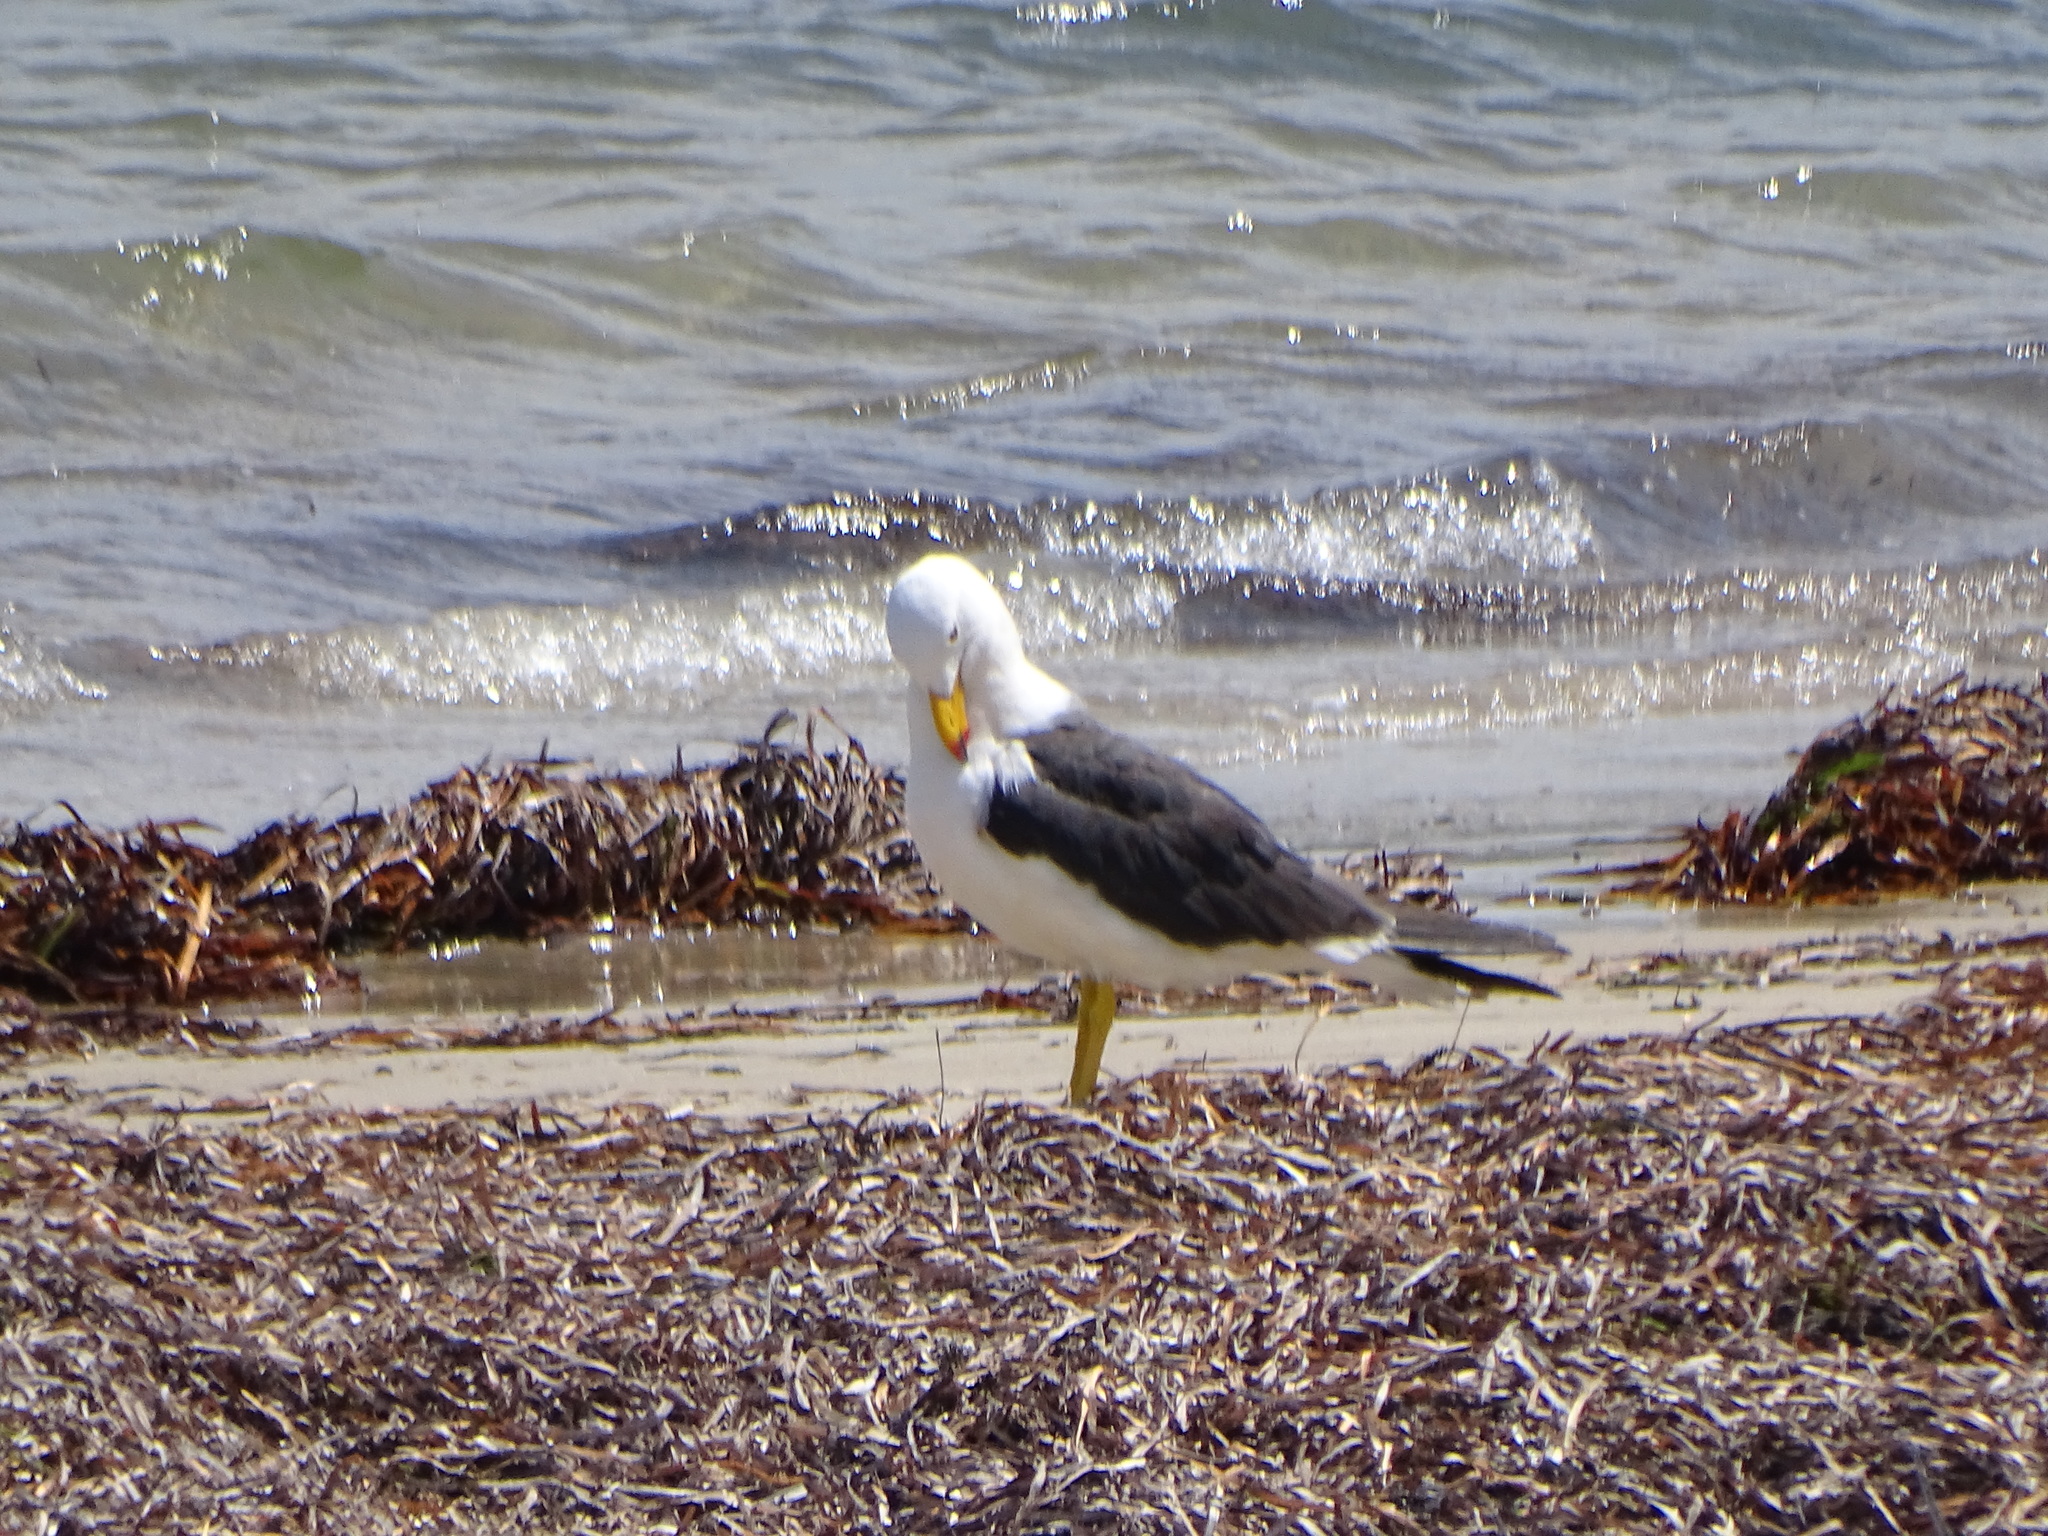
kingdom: Animalia
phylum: Chordata
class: Aves
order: Charadriiformes
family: Laridae
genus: Larus
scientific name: Larus pacificus
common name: Pacific gull
